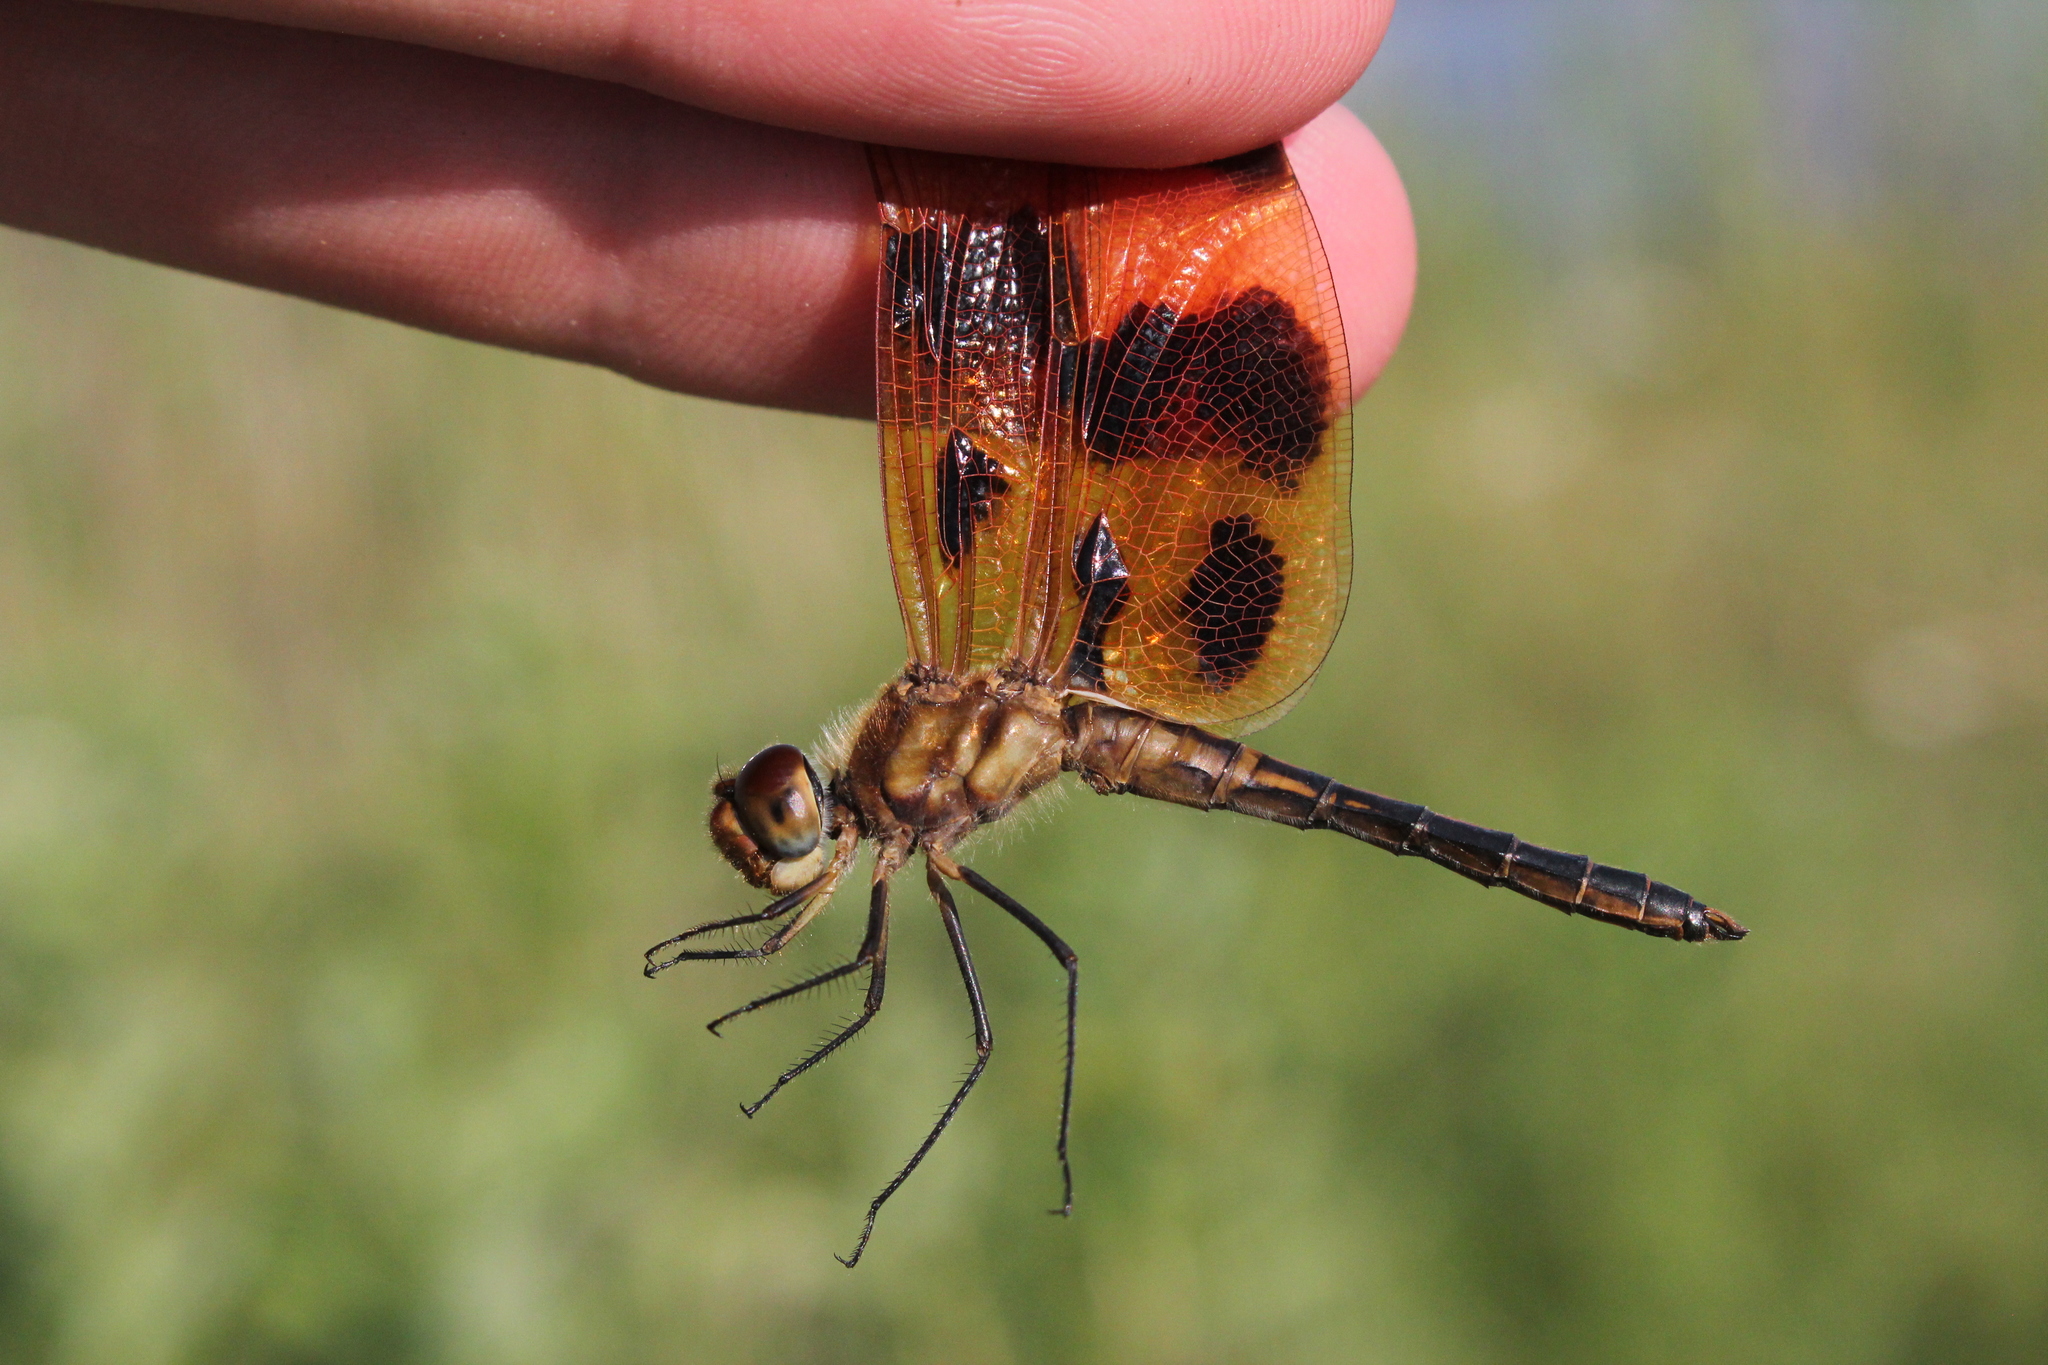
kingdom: Animalia
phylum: Arthropoda
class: Insecta
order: Odonata
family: Libellulidae
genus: Celithemis
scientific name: Celithemis eponina
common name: Halloween pennant
